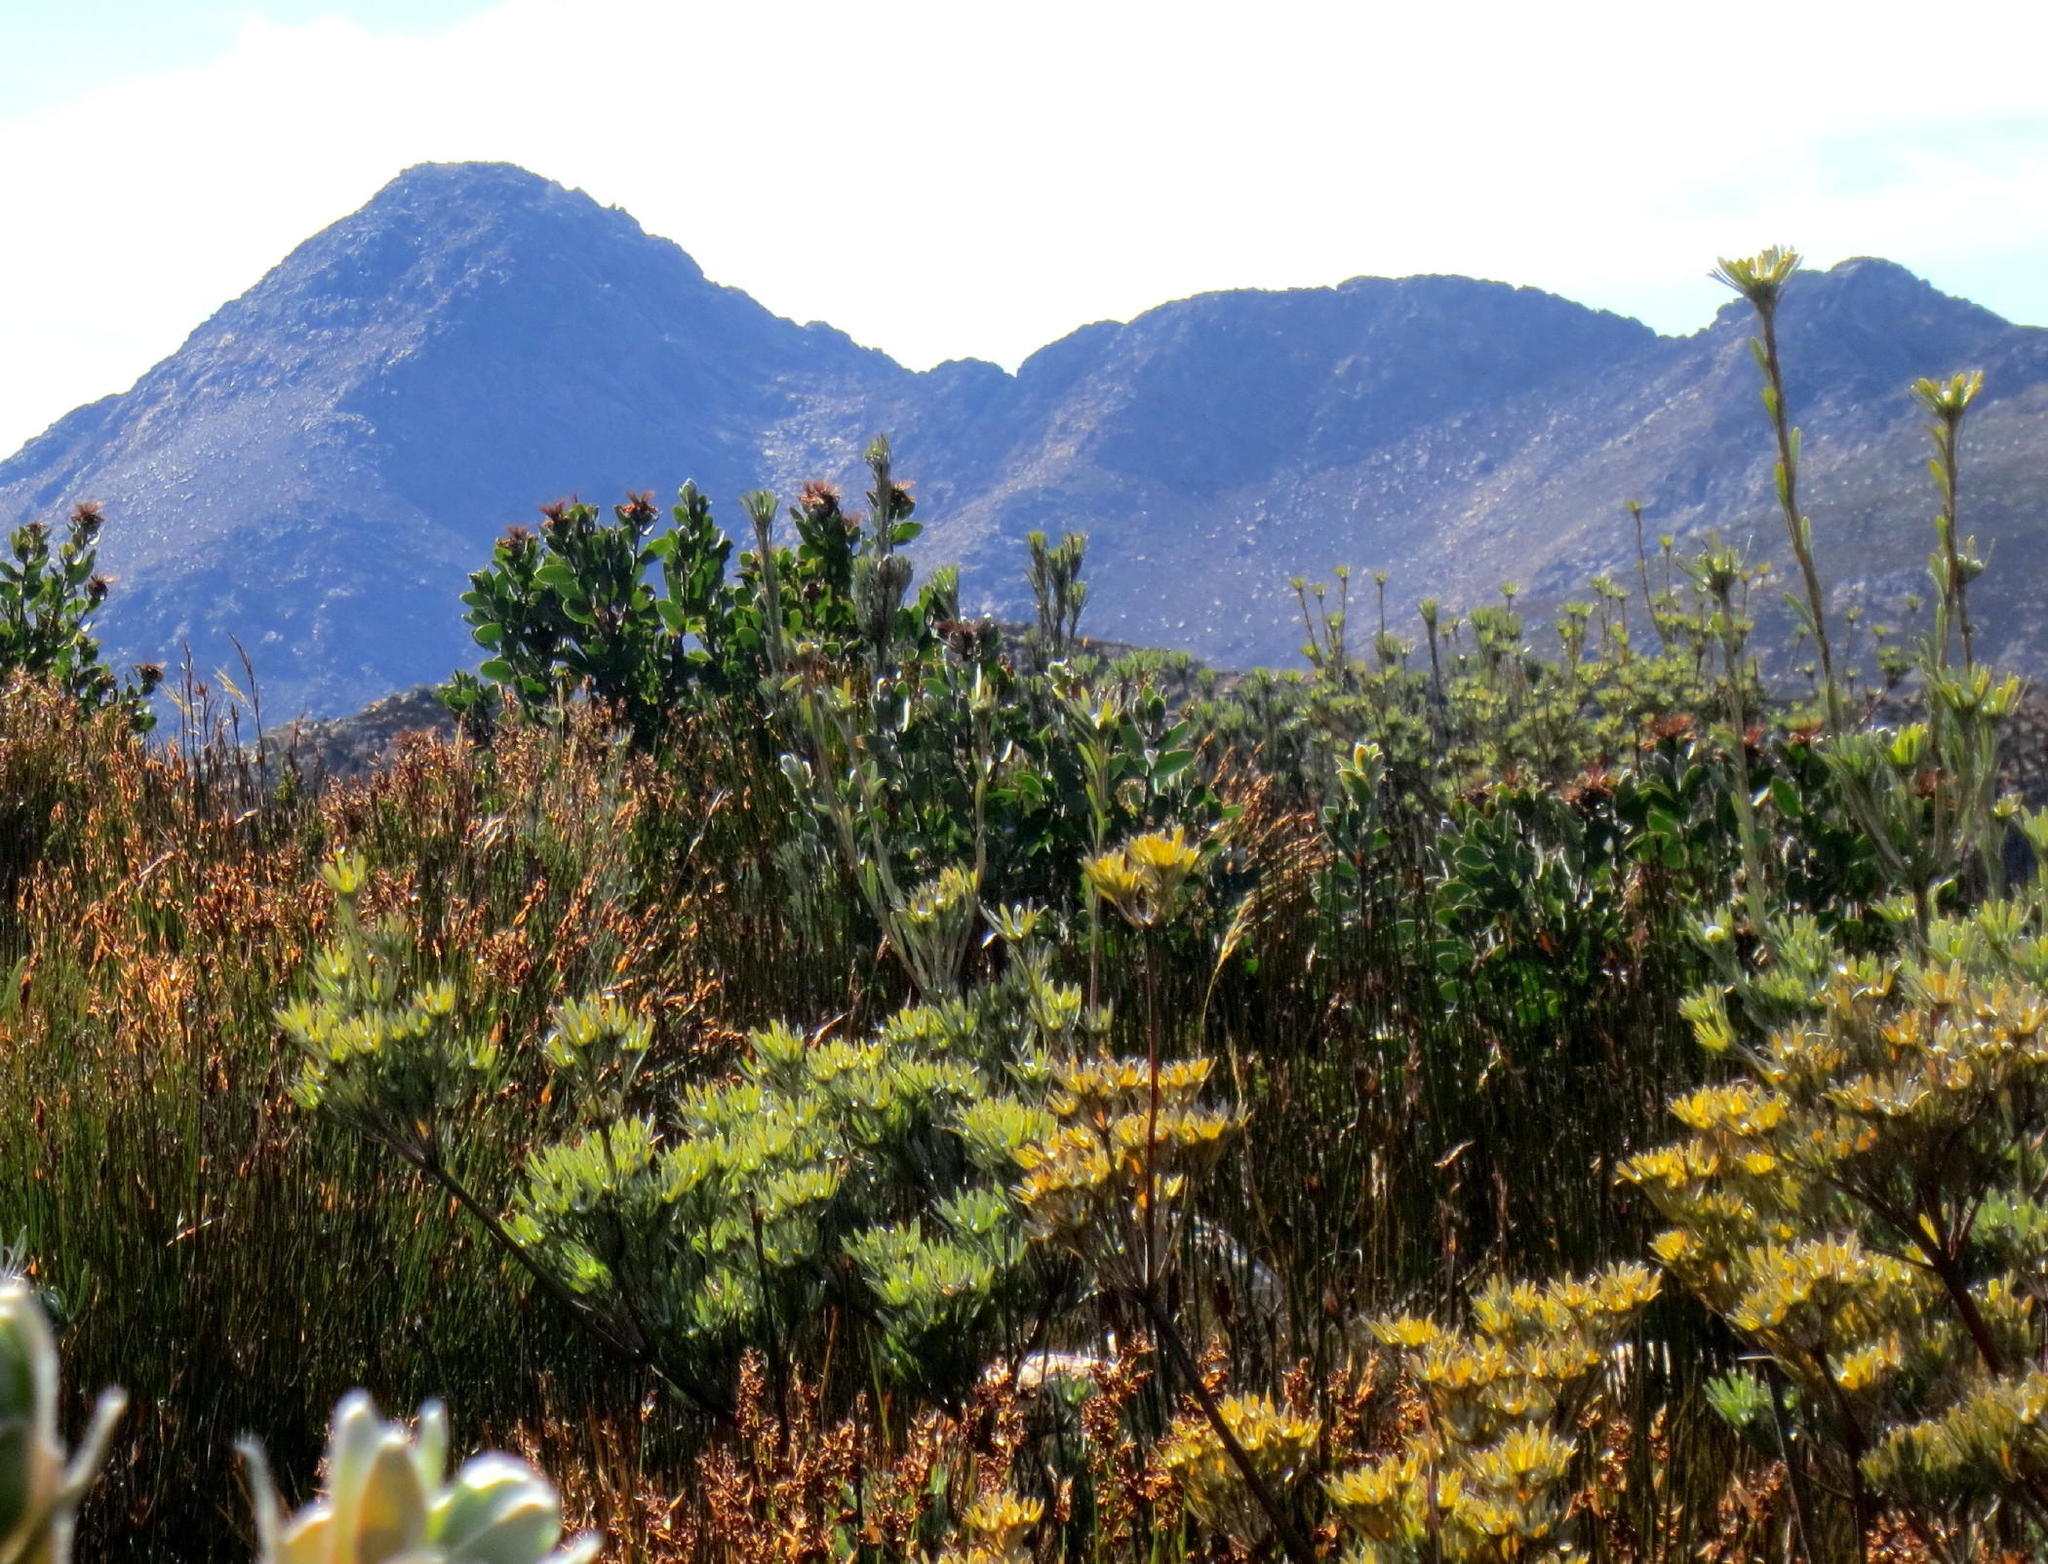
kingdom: Plantae
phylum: Tracheophyta
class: Magnoliopsida
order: Proteales
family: Proteaceae
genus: Leucadendron
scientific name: Leucadendron album
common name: Linear-leaf conebush
